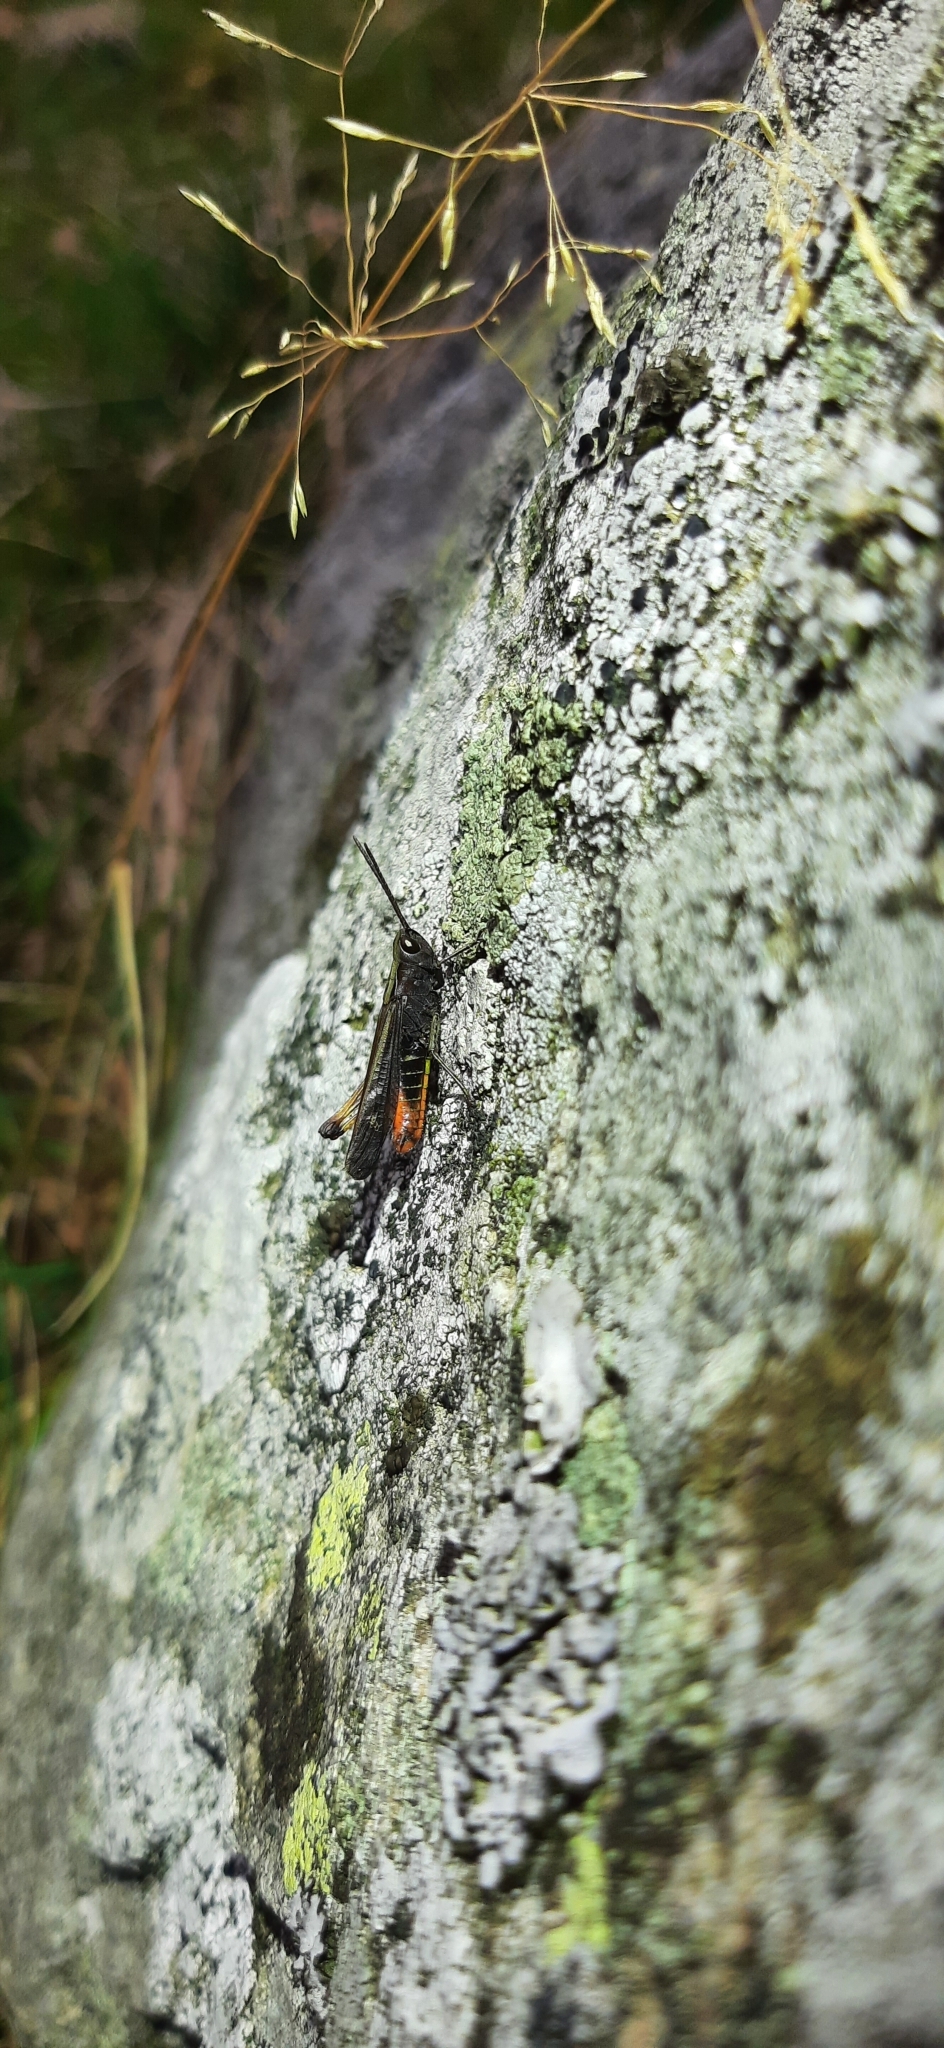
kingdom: Animalia
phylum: Arthropoda
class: Insecta
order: Orthoptera
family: Acrididae
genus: Omocestus
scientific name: Omocestus rufipes
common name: Woodland grasshopper
